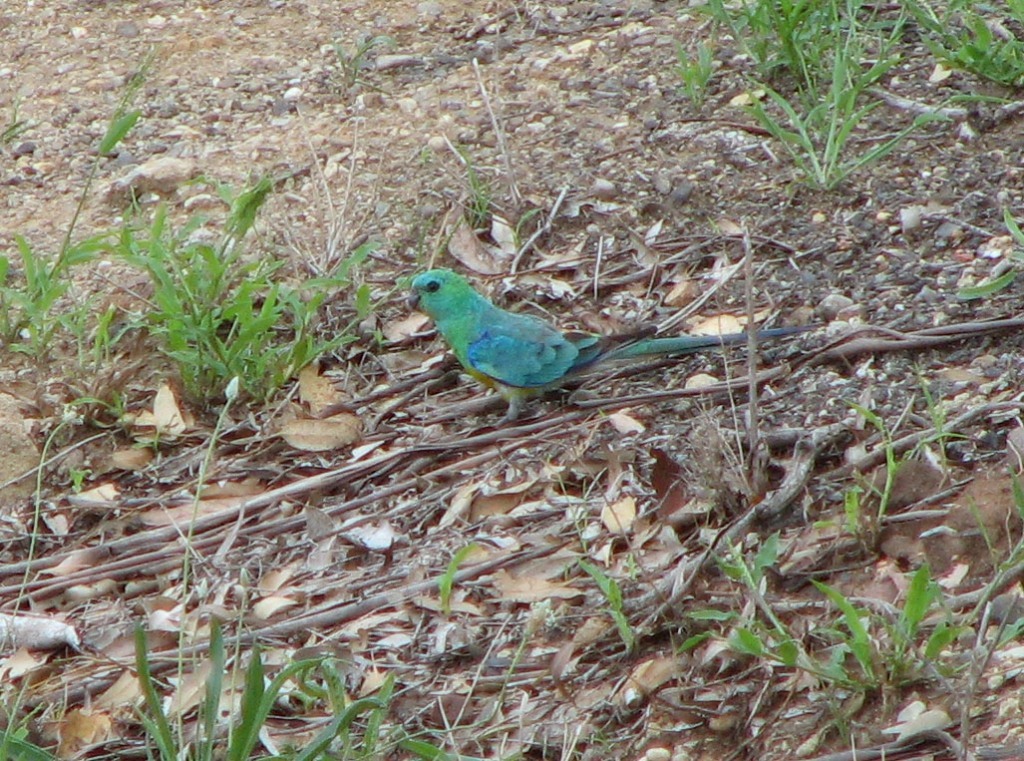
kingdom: Animalia
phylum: Chordata
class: Aves
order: Psittaciformes
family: Psittacidae
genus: Psephotus
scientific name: Psephotus haematonotus
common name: Red-rumped parrot
